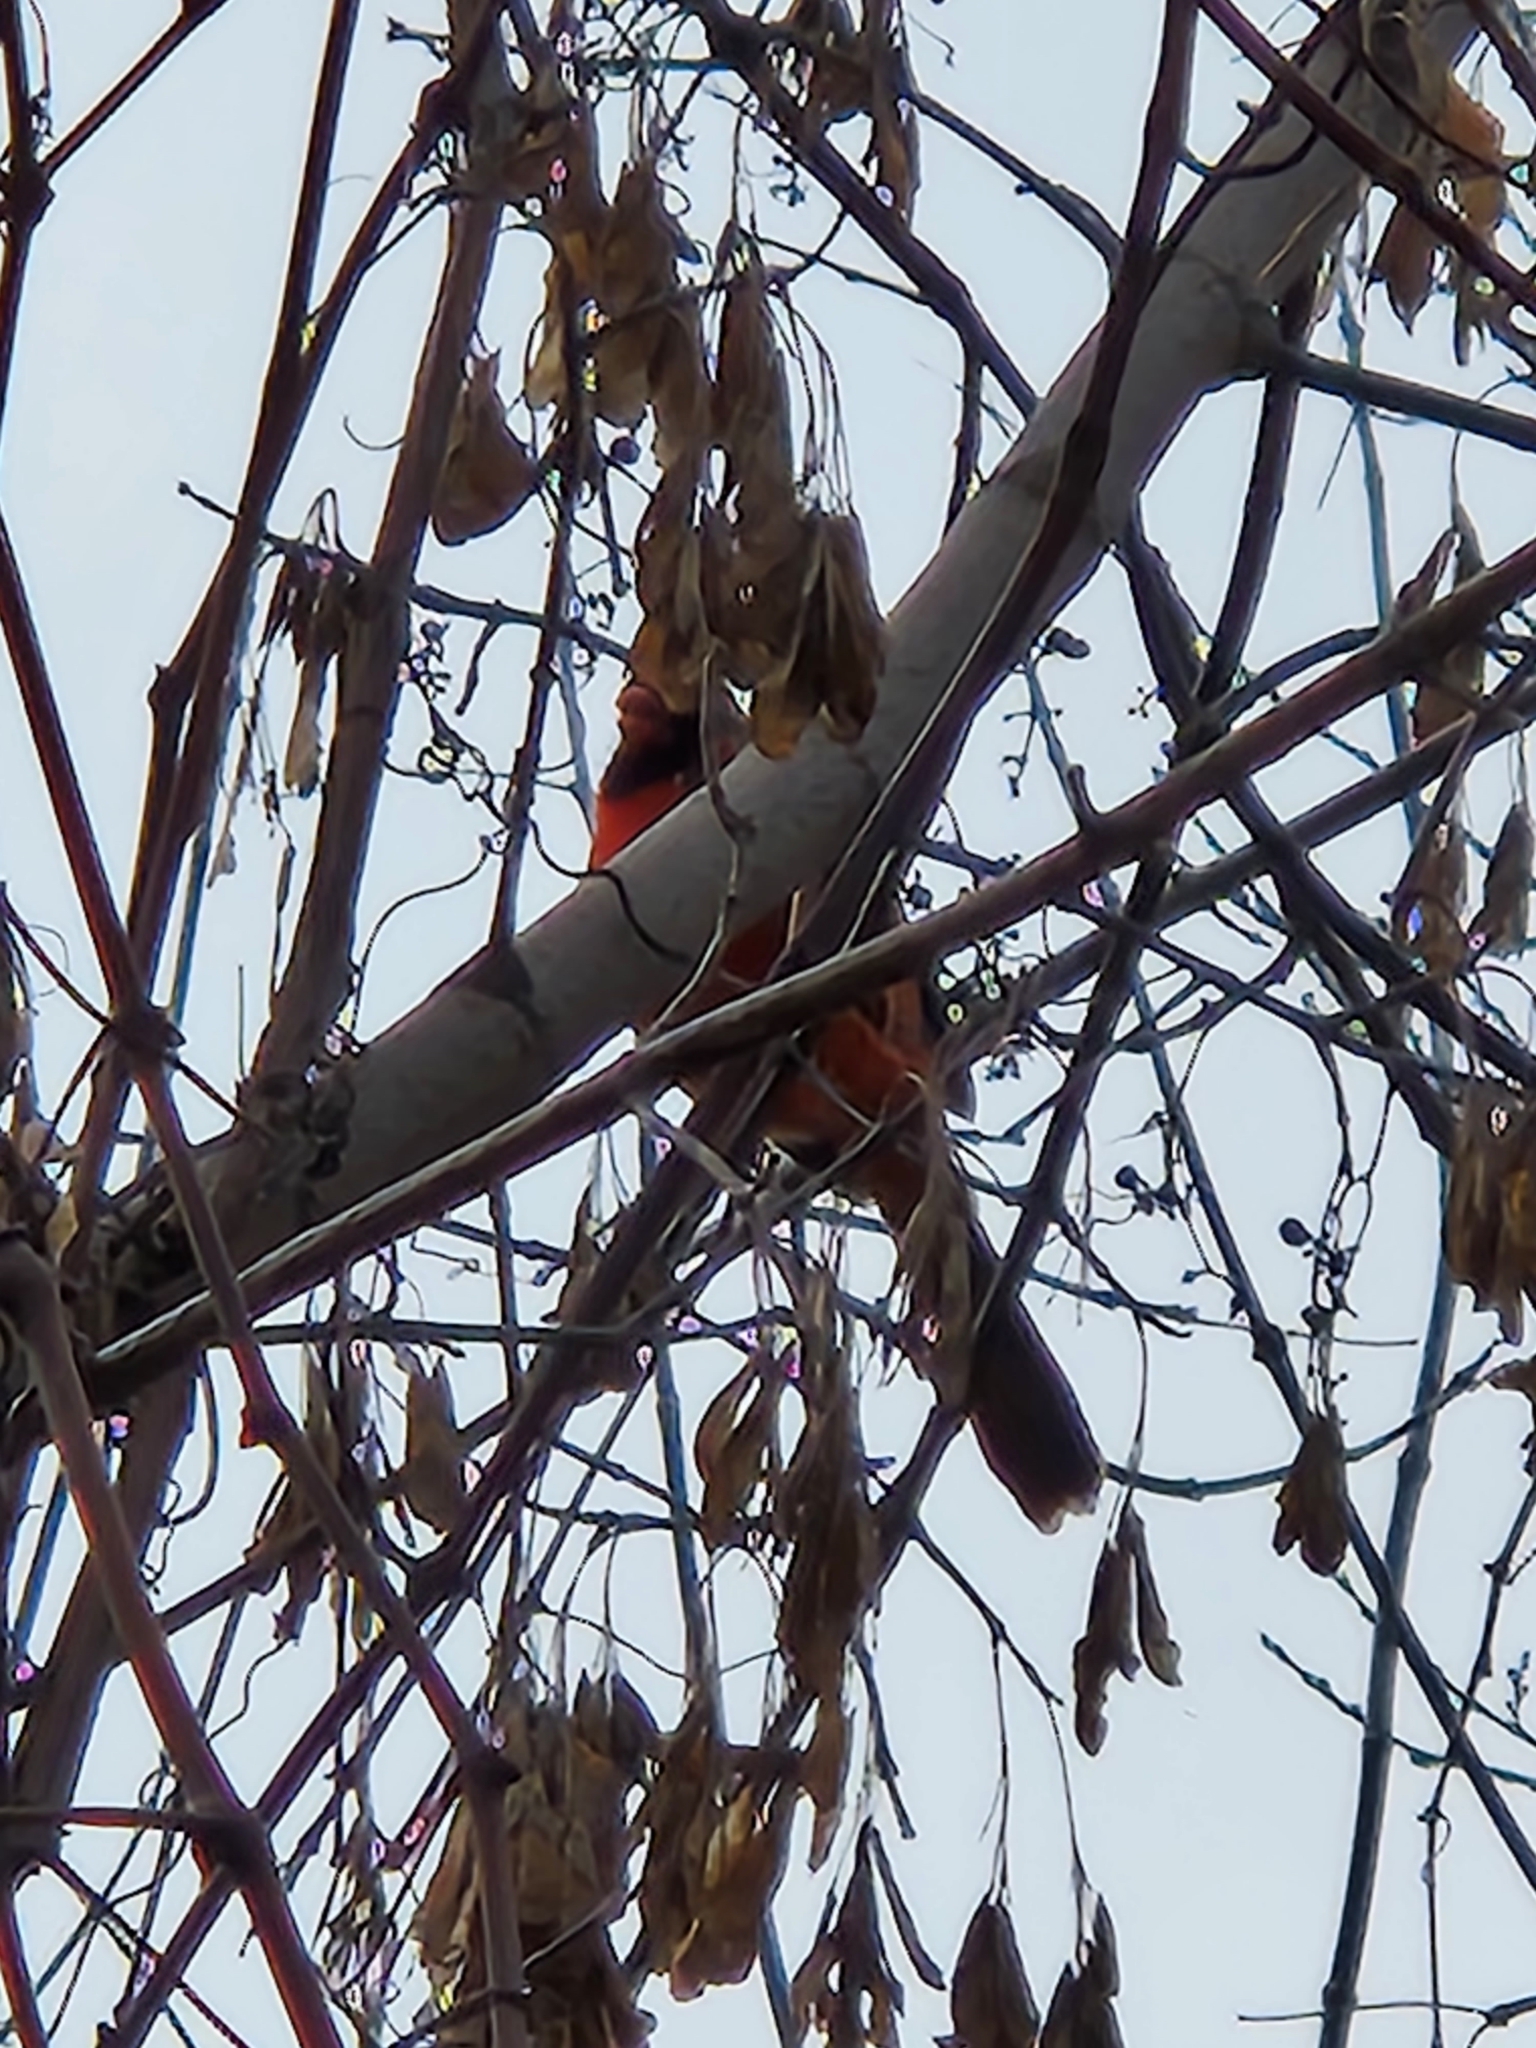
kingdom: Animalia
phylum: Chordata
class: Aves
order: Passeriformes
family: Cardinalidae
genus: Cardinalis
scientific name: Cardinalis cardinalis
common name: Northern cardinal
